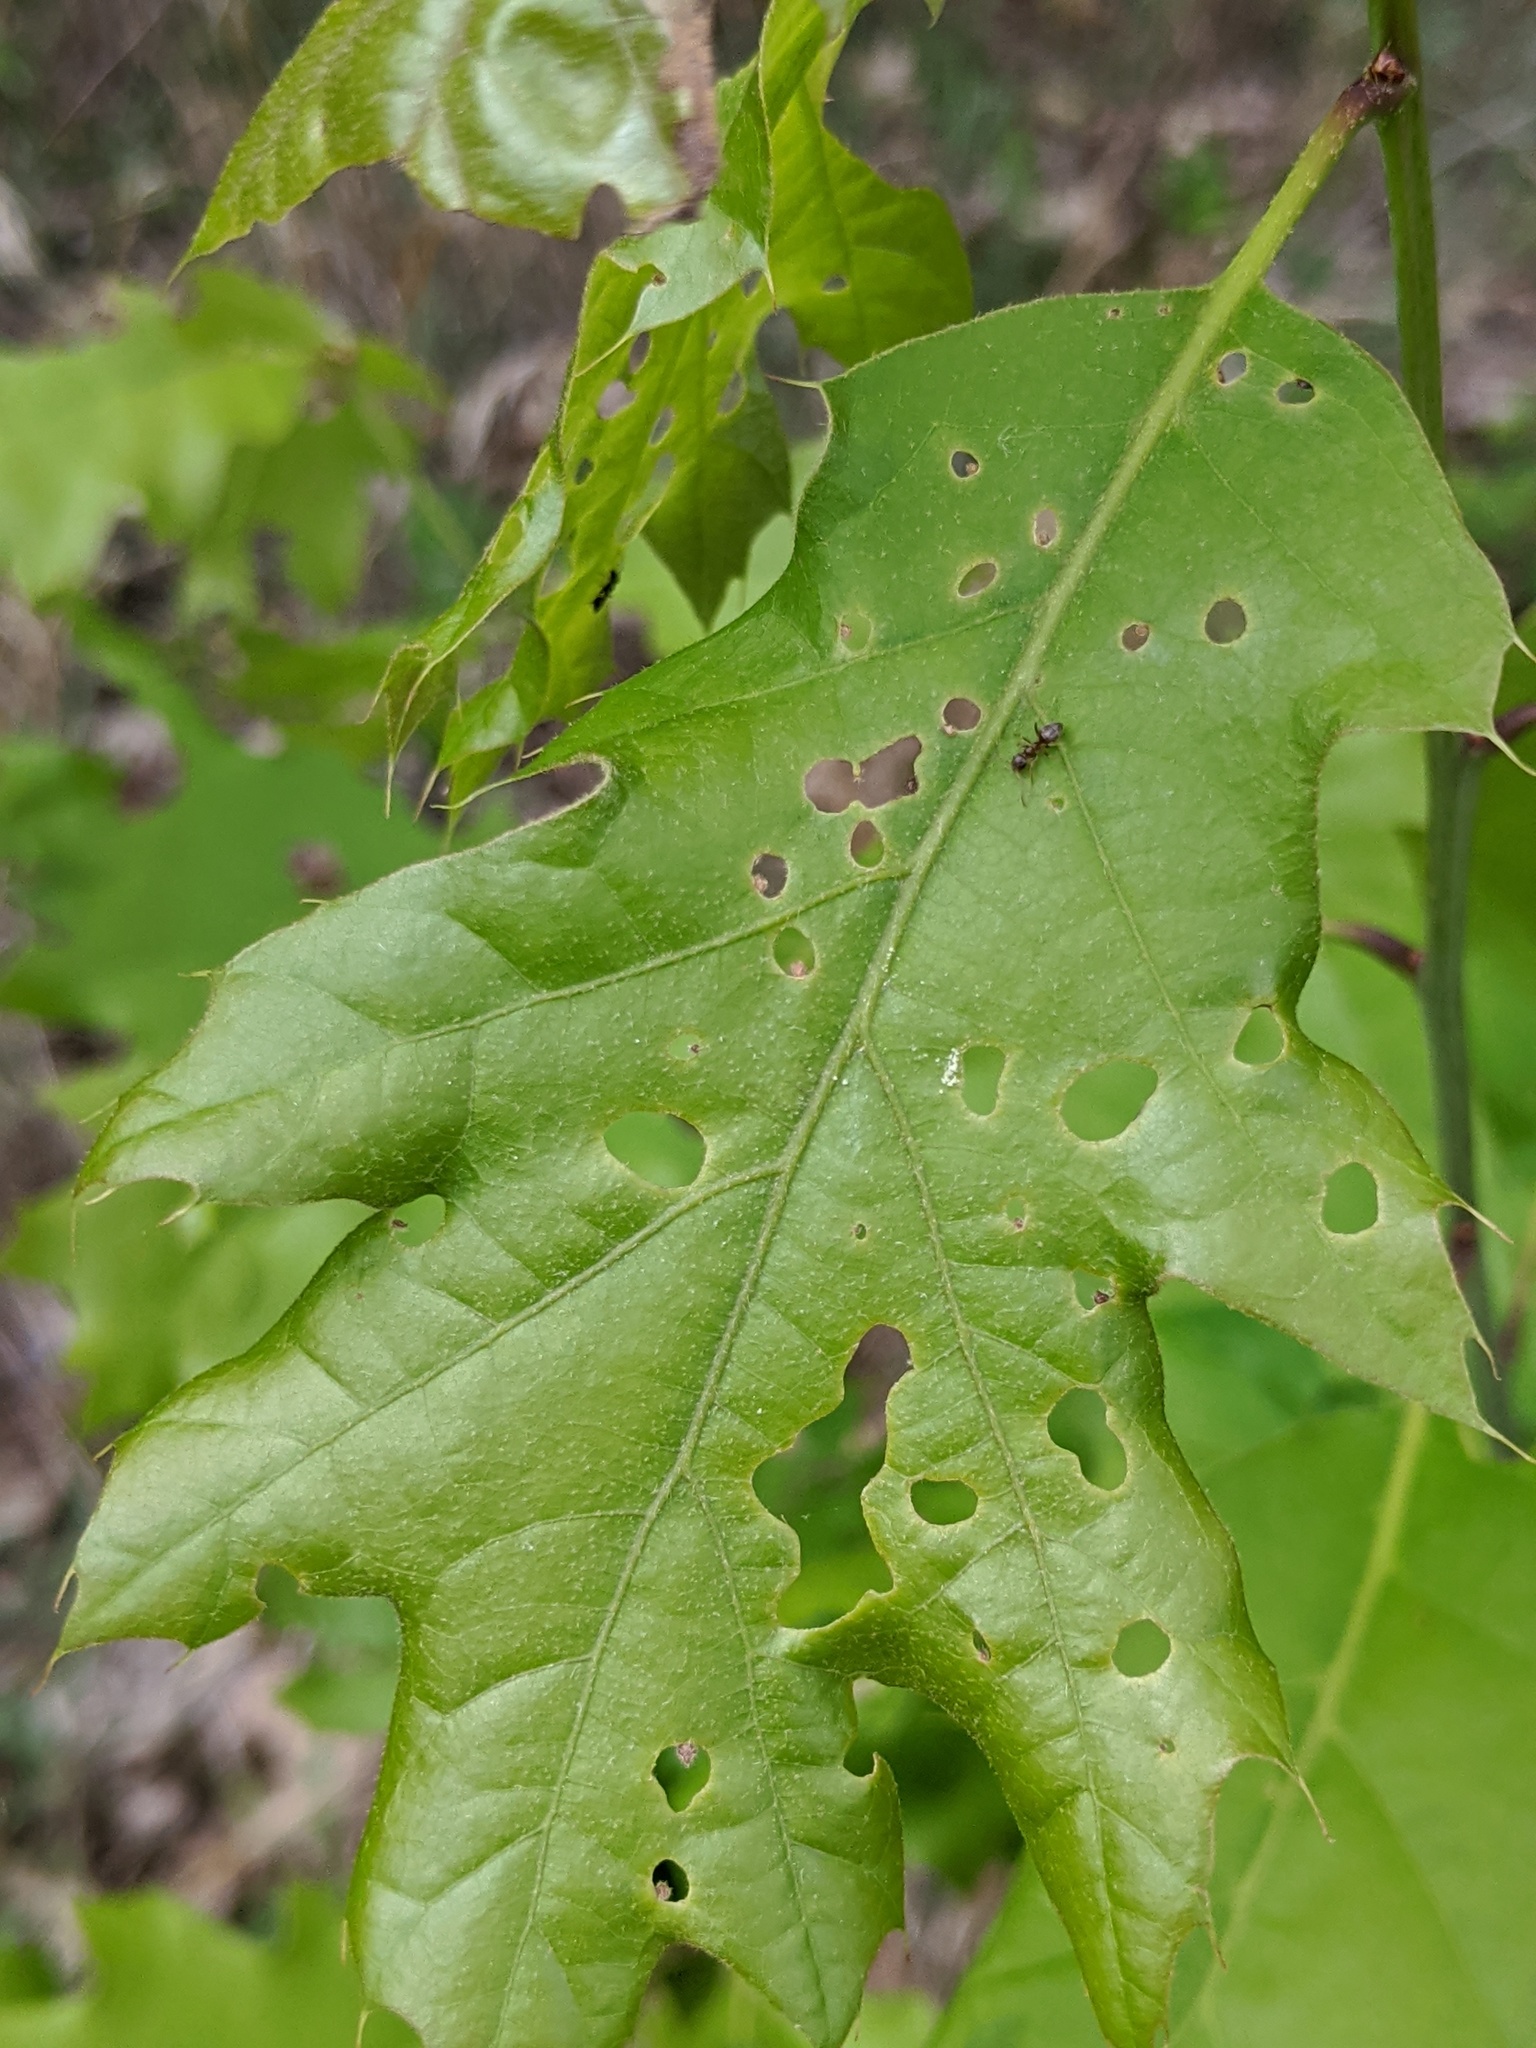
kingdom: Animalia
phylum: Arthropoda
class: Insecta
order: Diptera
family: Agromyzidae
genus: Japanagromyza
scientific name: Japanagromyza viridula
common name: Oak shothole leafminer
